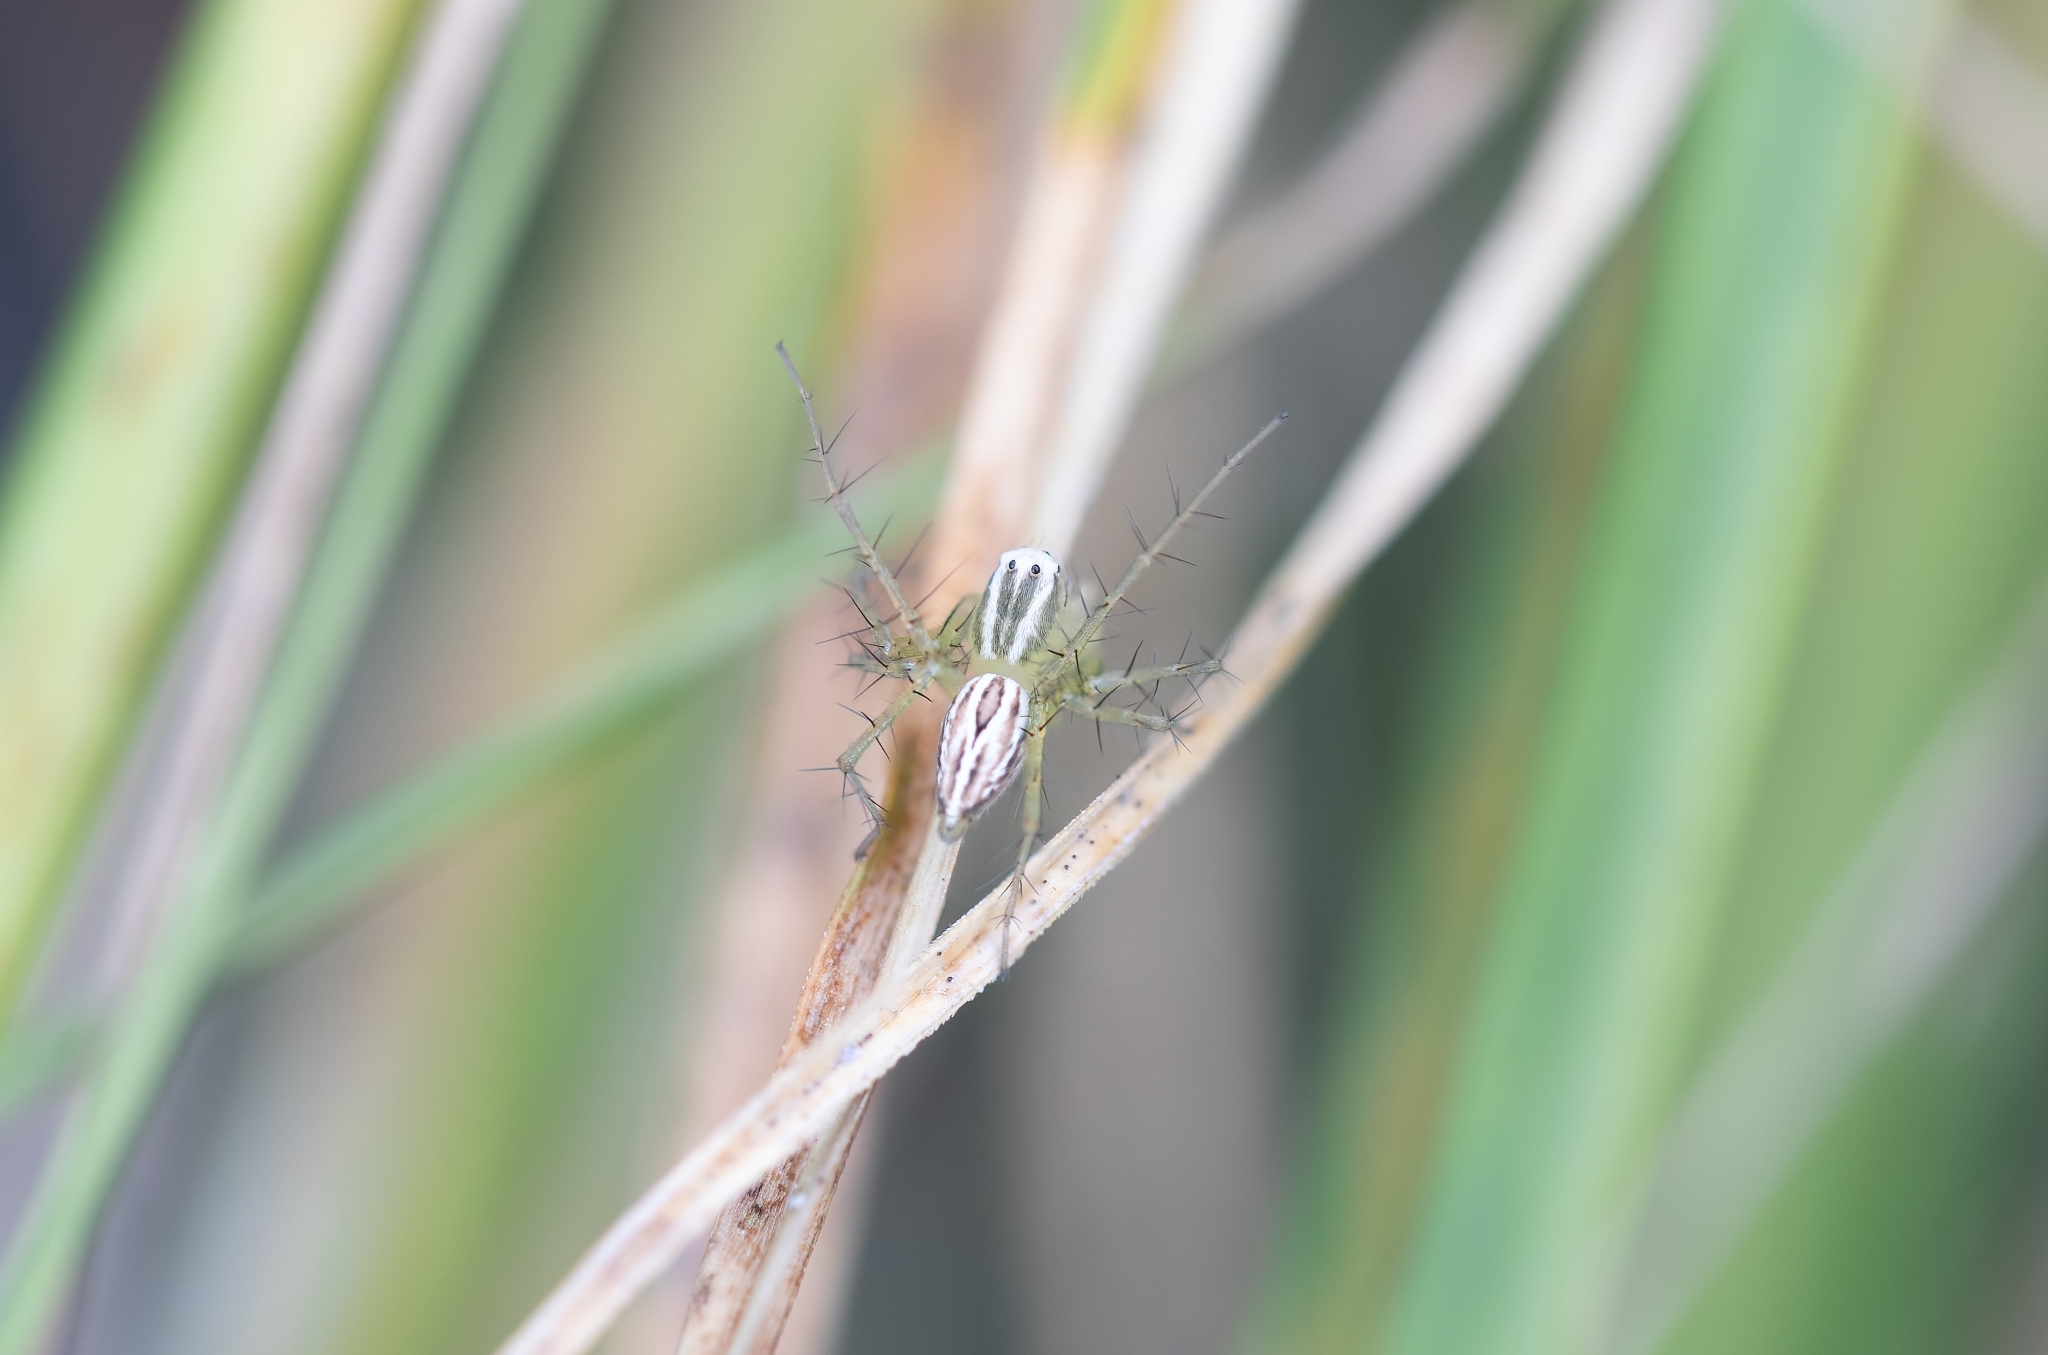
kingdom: Animalia
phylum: Arthropoda
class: Arachnida
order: Araneae
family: Oxyopidae
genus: Oxyopes
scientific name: Oxyopes salticus
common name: Lynx spiders
